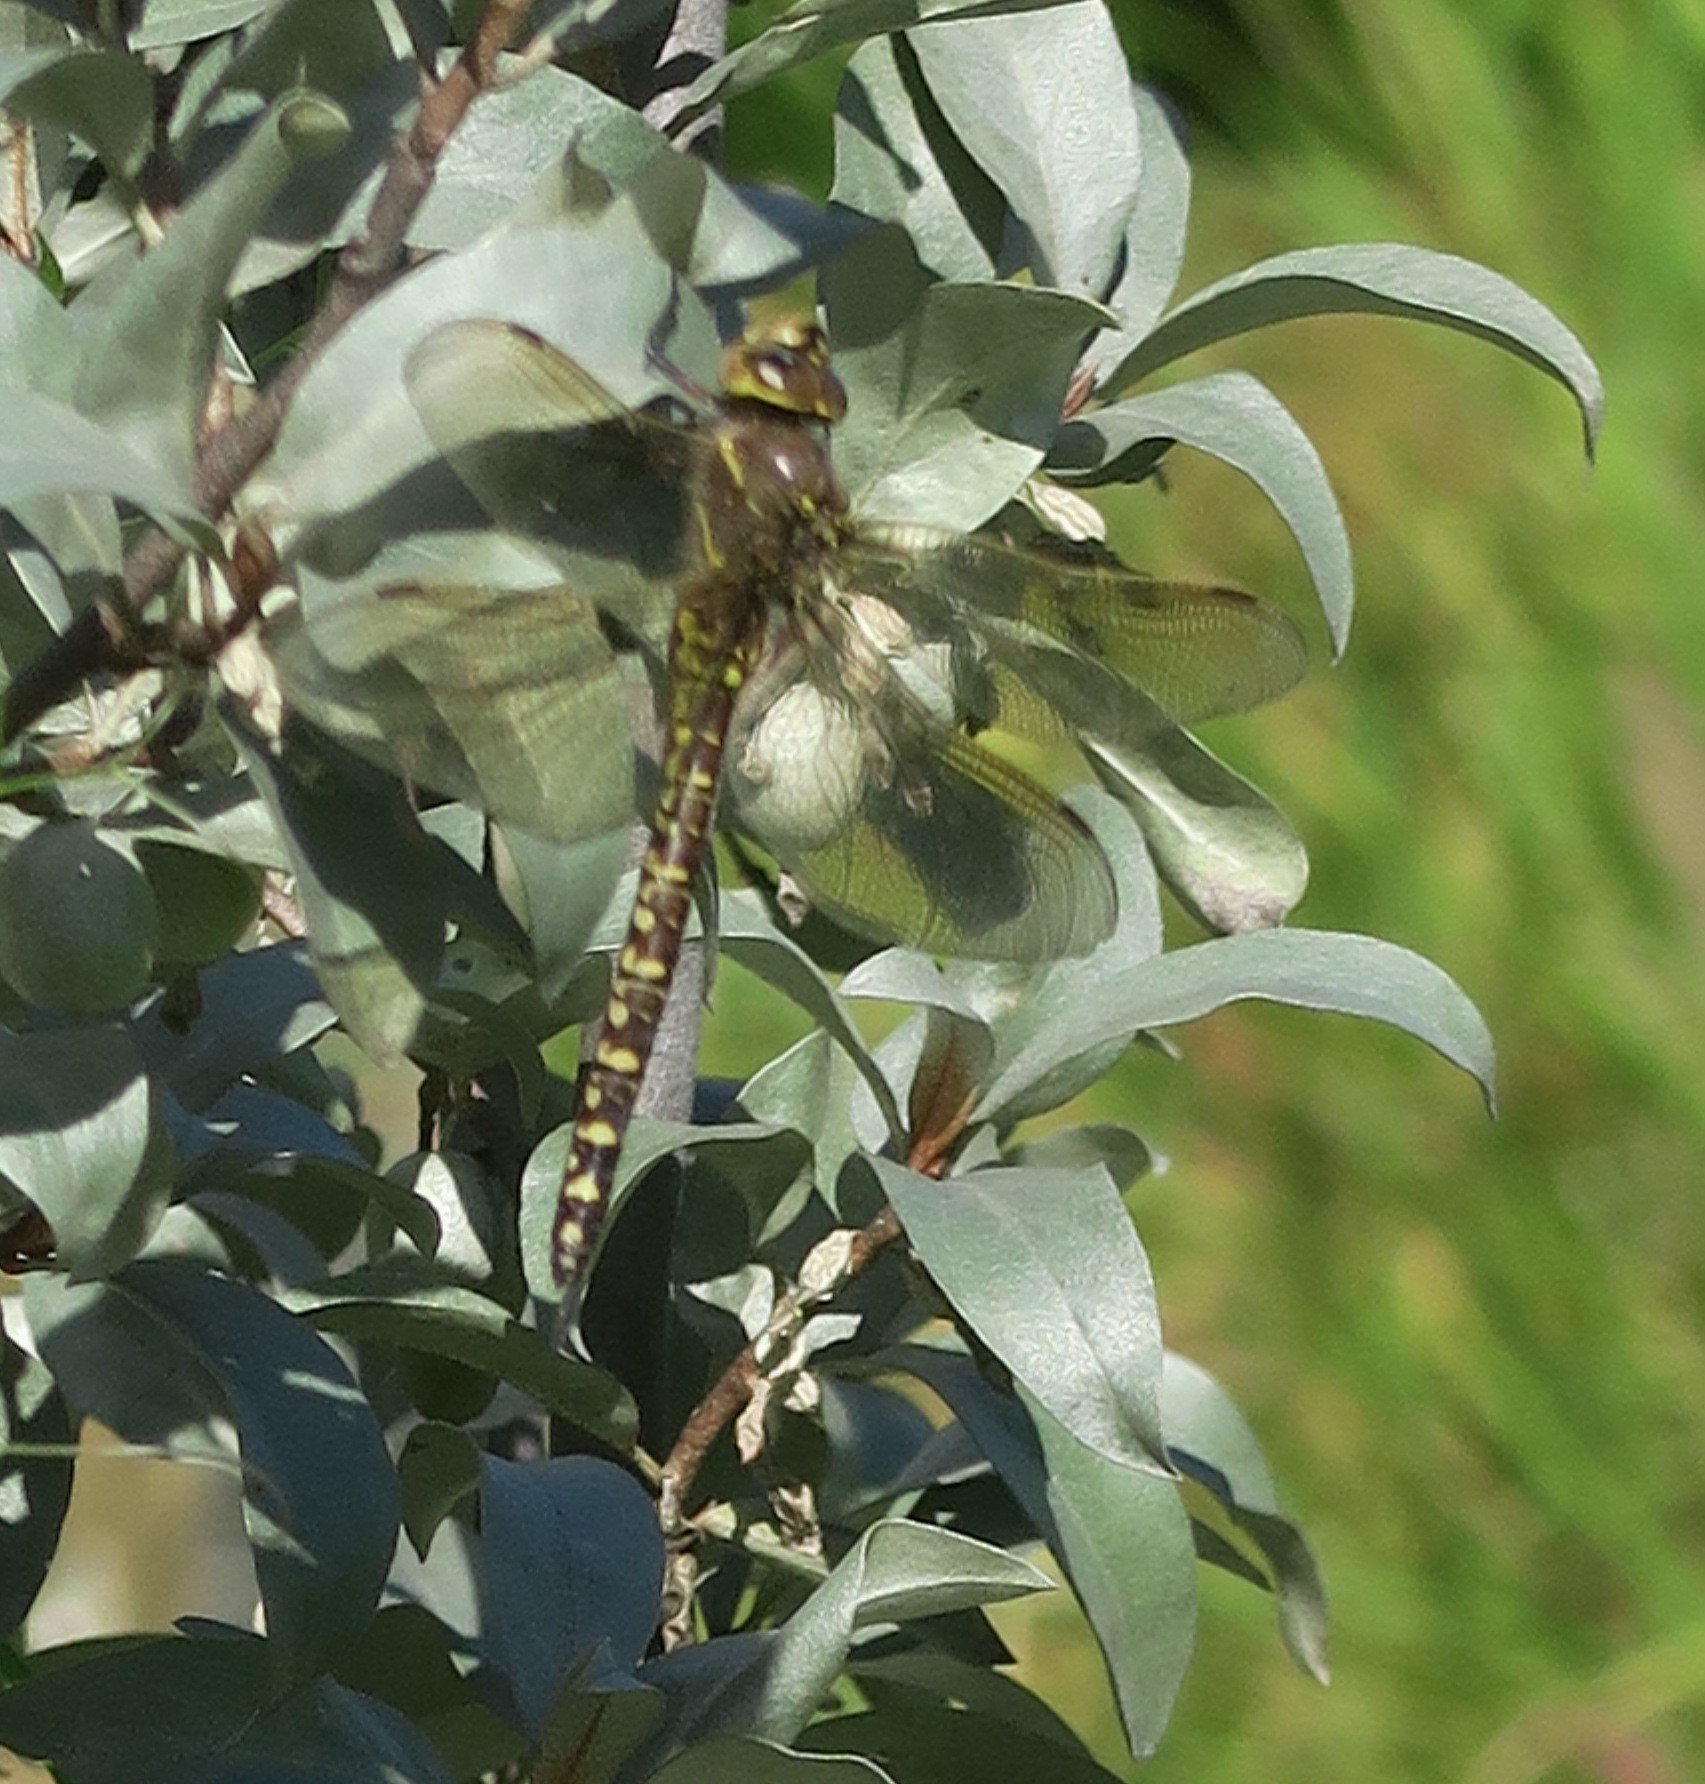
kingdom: Animalia
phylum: Arthropoda
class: Insecta
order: Odonata
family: Aeshnidae
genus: Aeshna
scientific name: Aeshna interrupta
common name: Variable darner
